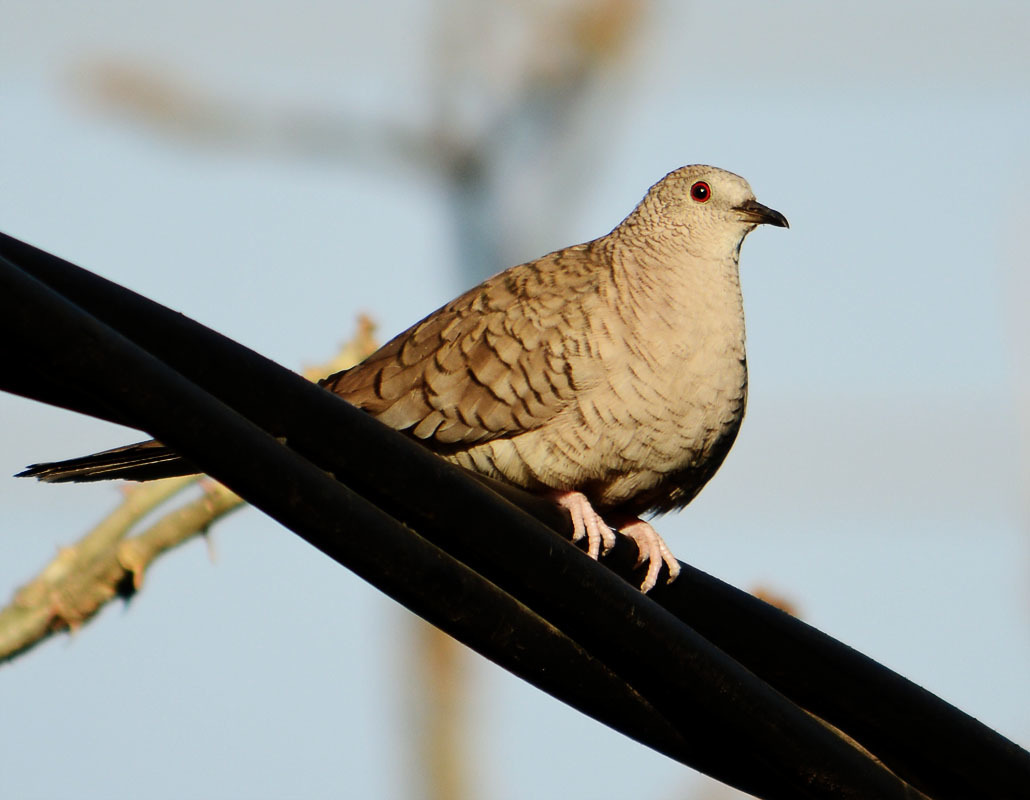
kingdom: Animalia
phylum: Chordata
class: Aves
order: Columbiformes
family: Columbidae
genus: Columbina
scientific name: Columbina inca
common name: Inca dove
